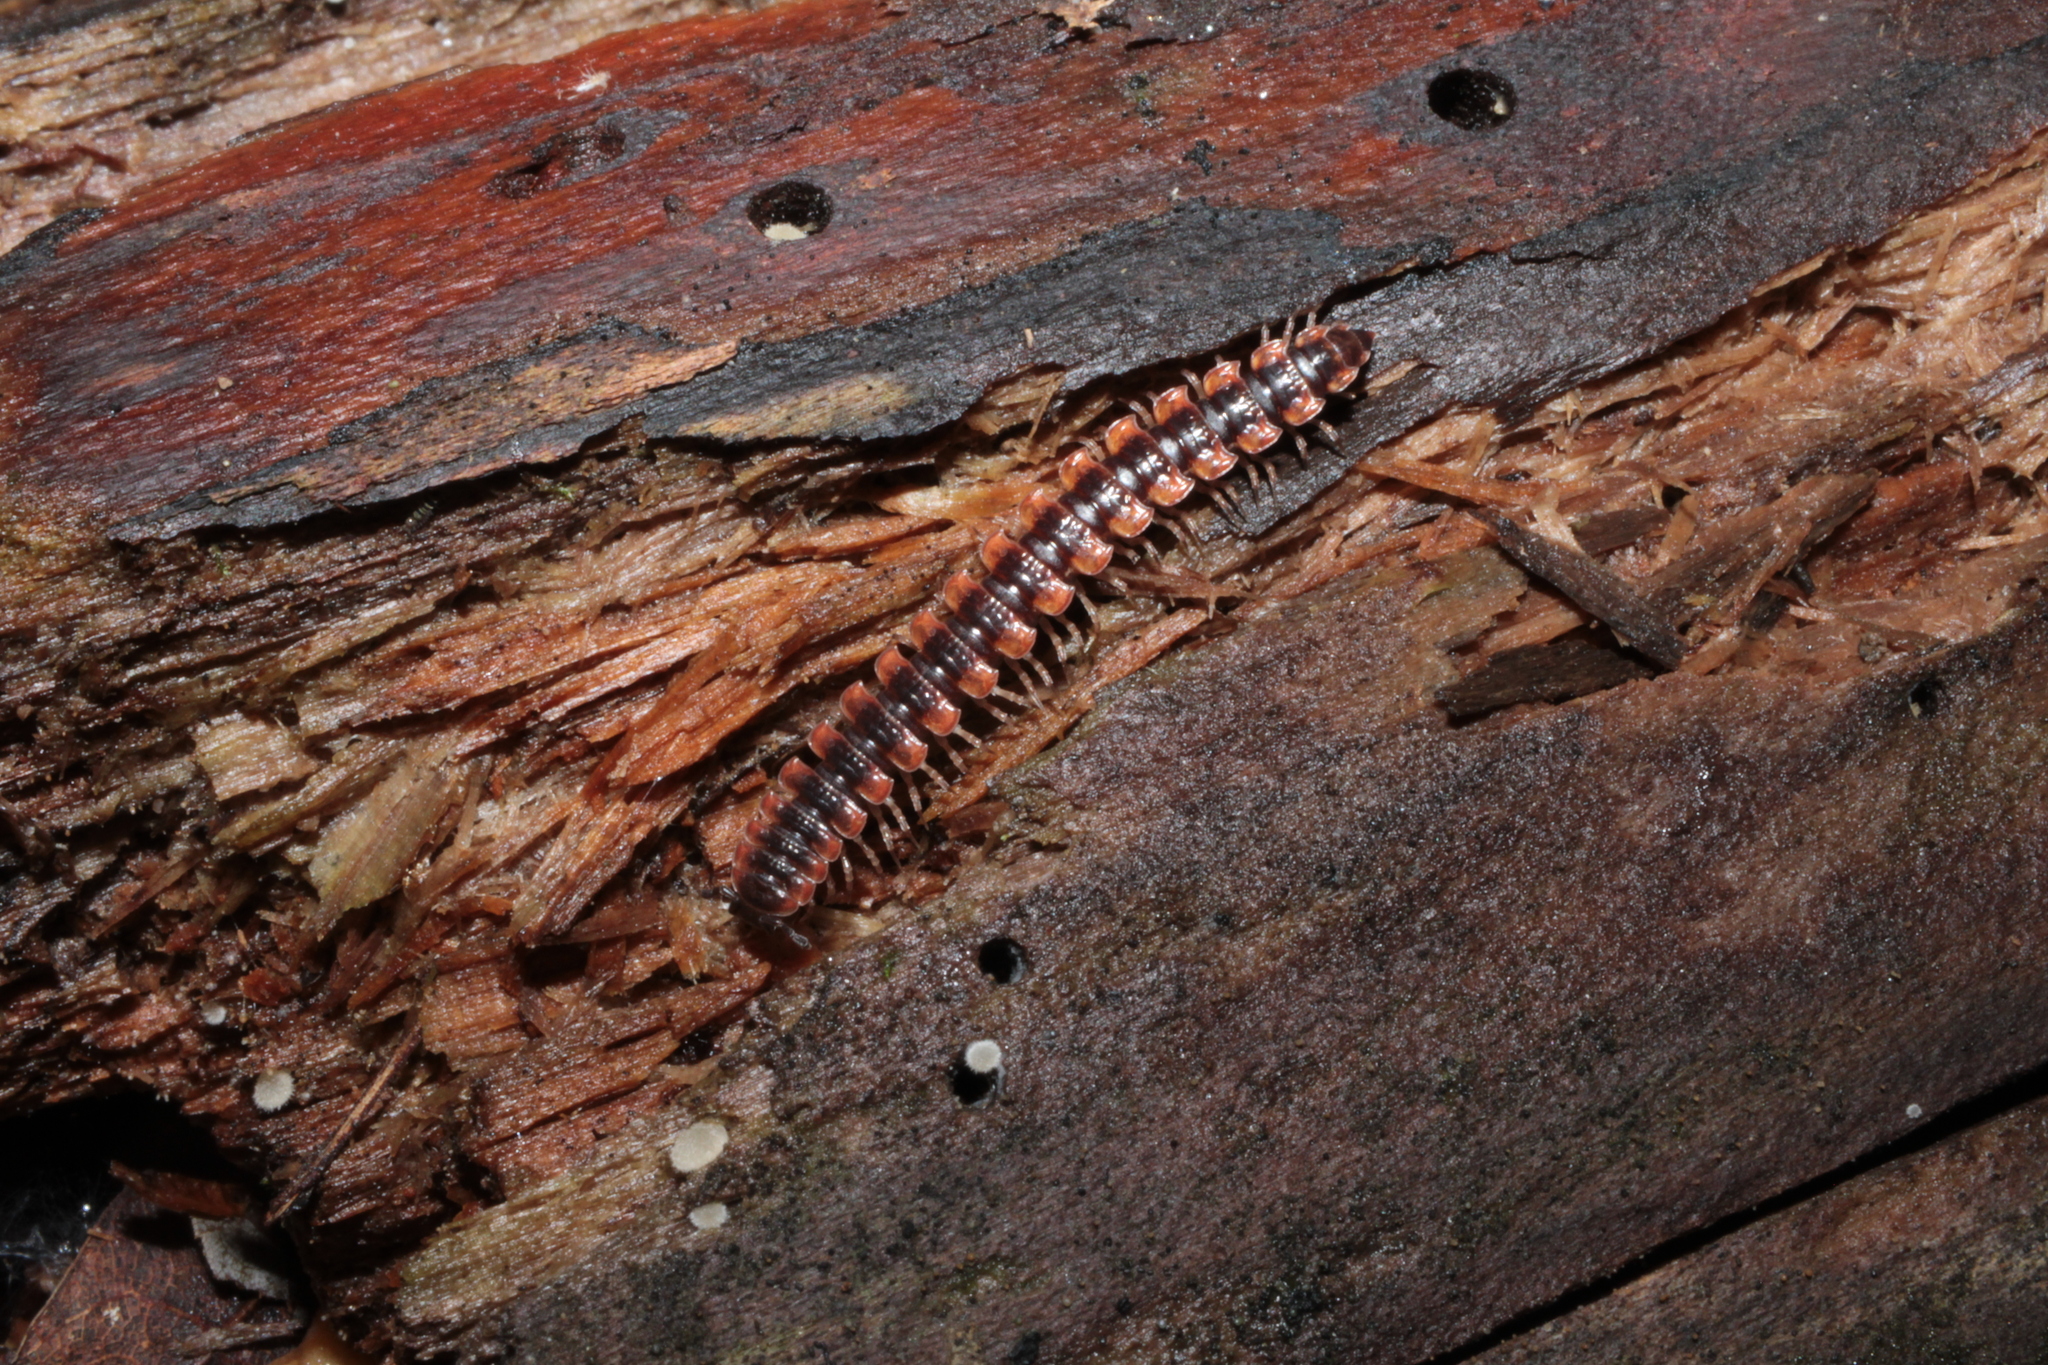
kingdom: Animalia
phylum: Arthropoda
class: Diplopoda
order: Polydesmida
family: Polydesmidae
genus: Pseudopolydesmus
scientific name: Pseudopolydesmus canadensis
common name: Canadian flat-back millipede
